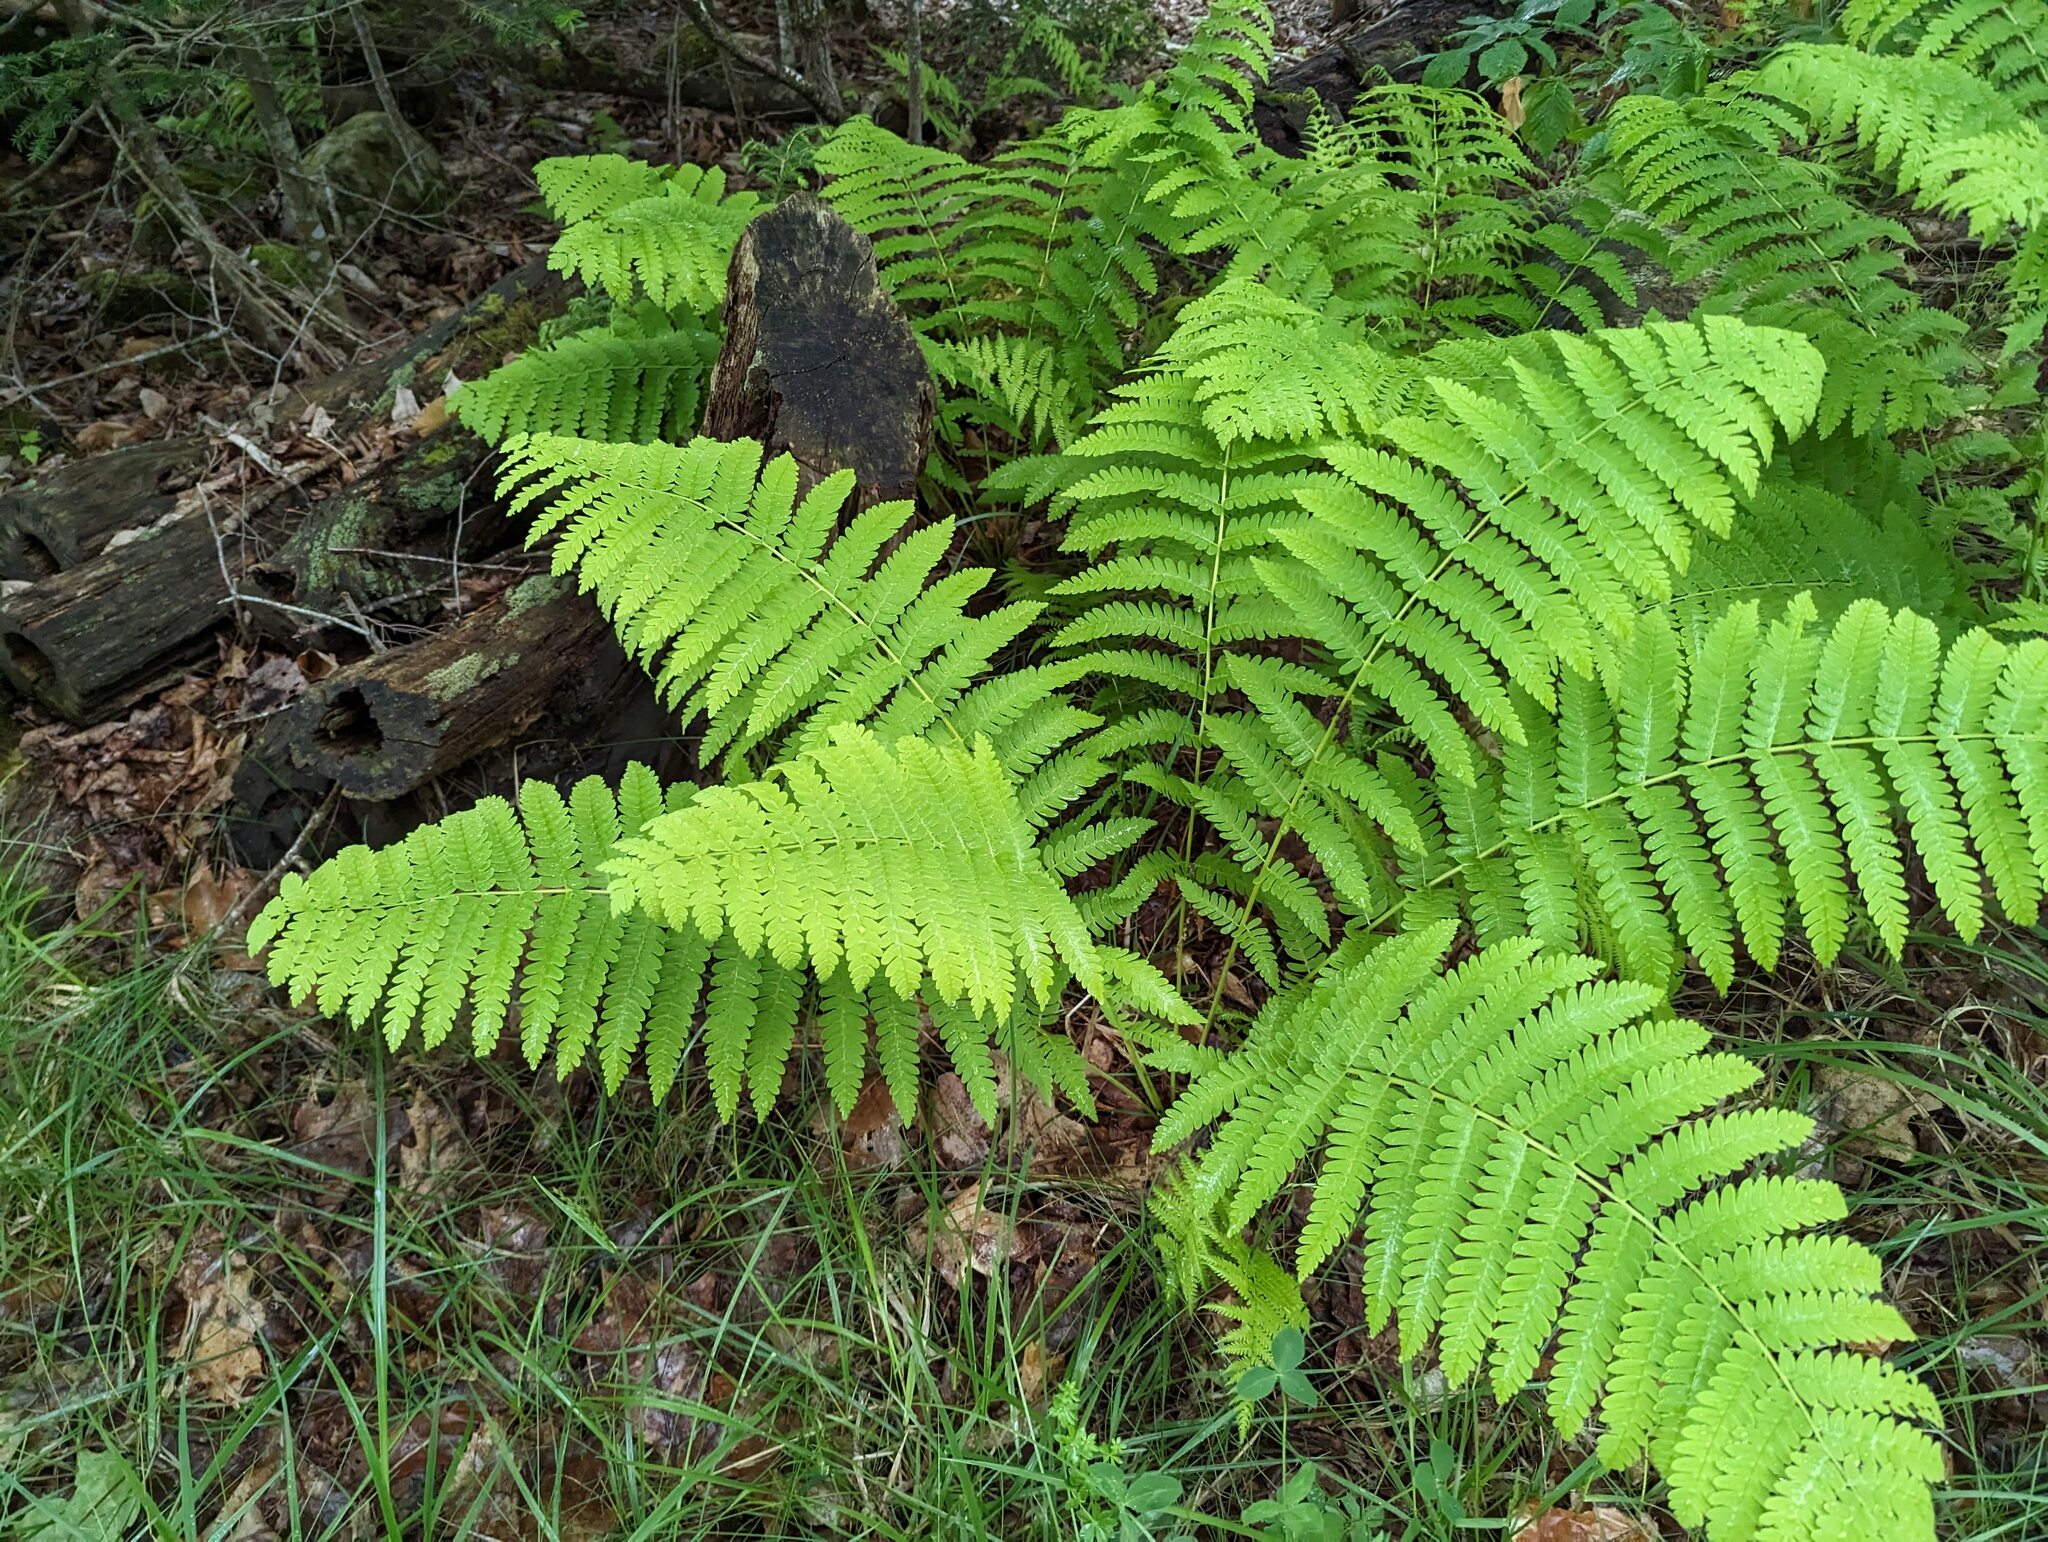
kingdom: Plantae
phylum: Tracheophyta
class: Polypodiopsida
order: Osmundales
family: Osmundaceae
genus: Claytosmunda
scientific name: Claytosmunda claytoniana
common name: Clayton's fern
